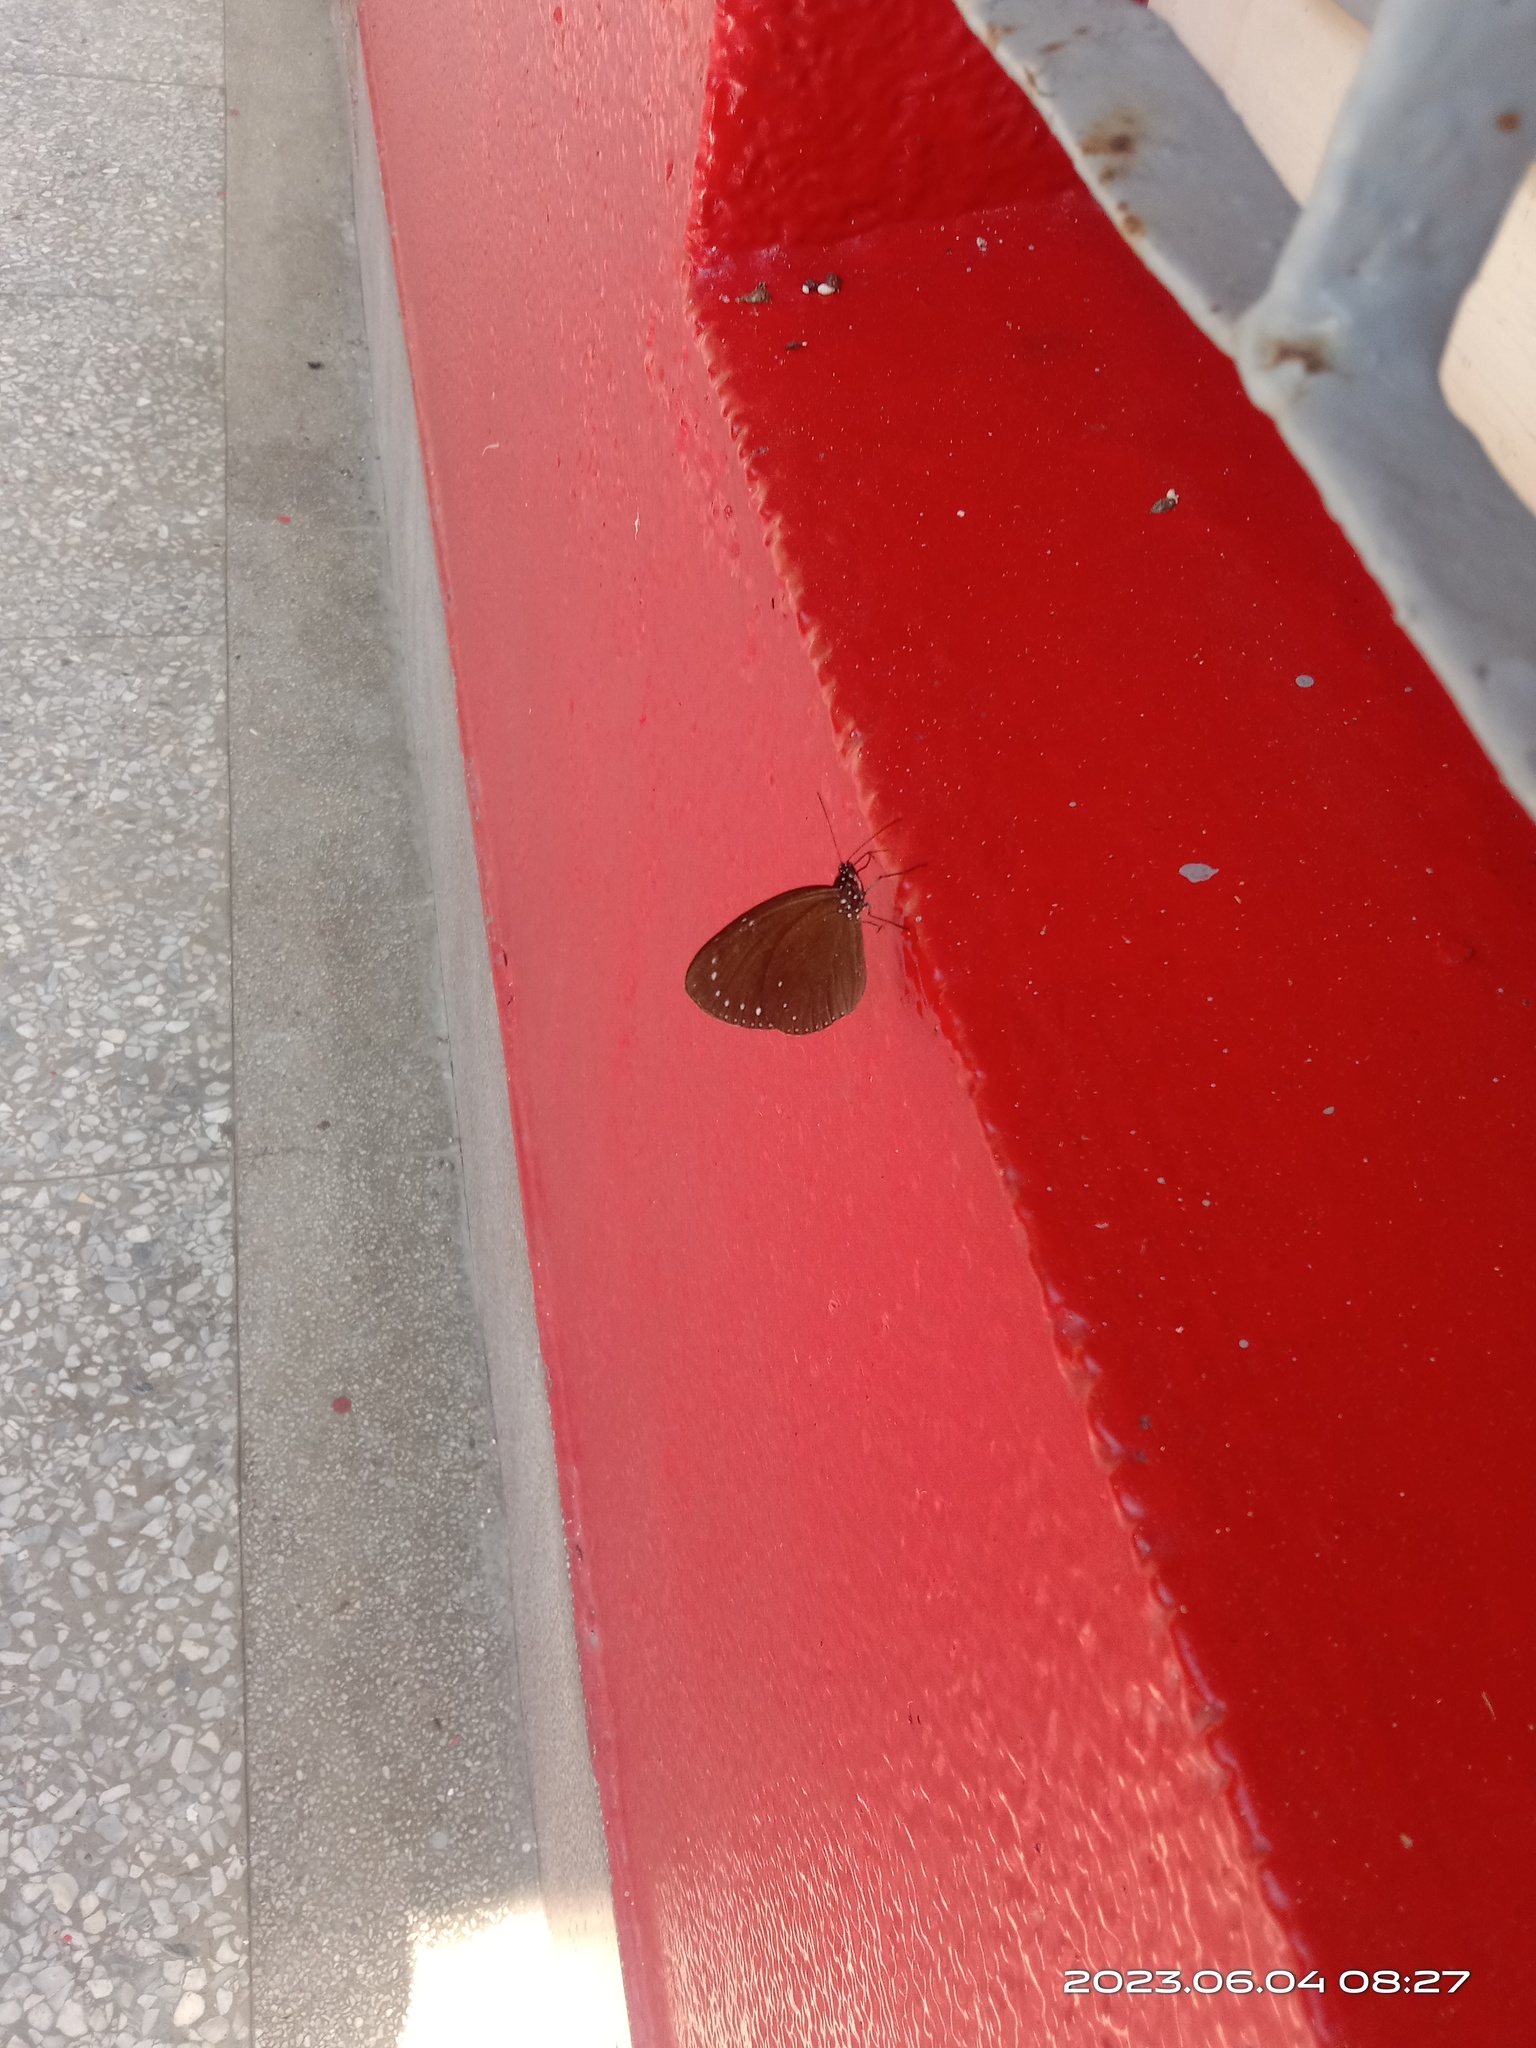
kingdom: Animalia
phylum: Arthropoda
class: Insecta
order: Lepidoptera
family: Nymphalidae
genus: Euploea
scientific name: Euploea tulliolus
